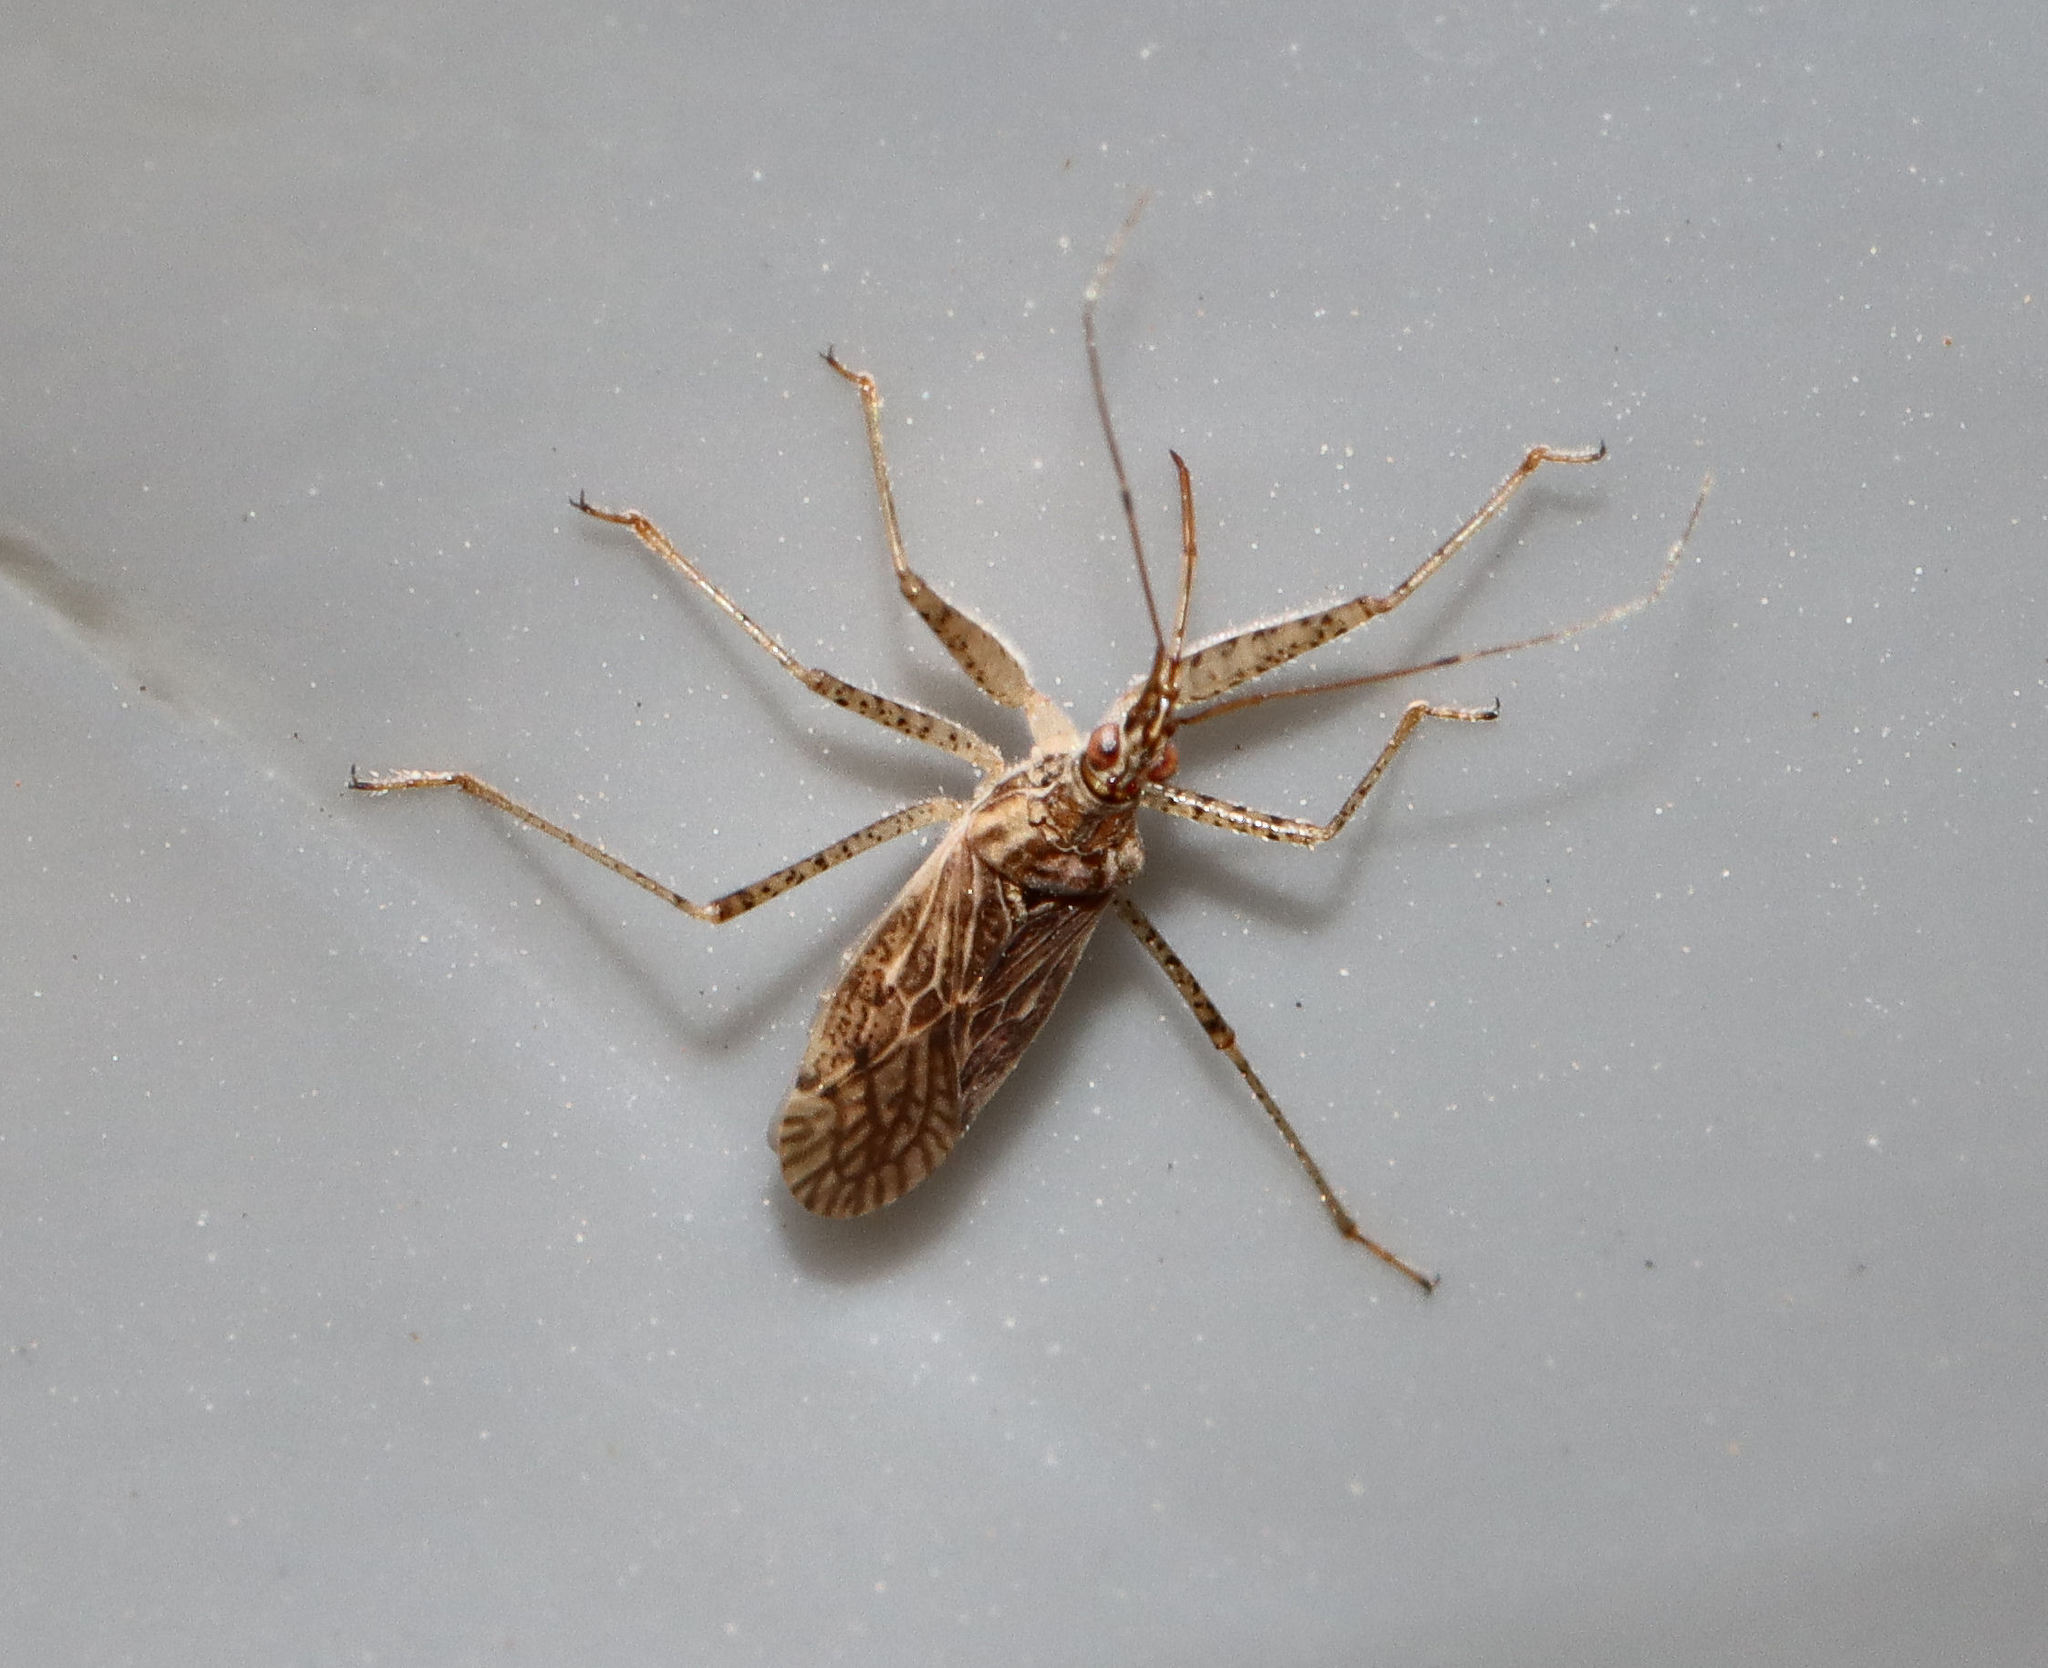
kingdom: Animalia
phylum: Arthropoda
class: Insecta
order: Hemiptera
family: Nabidae
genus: Nabis
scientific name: Nabis roseipennis
